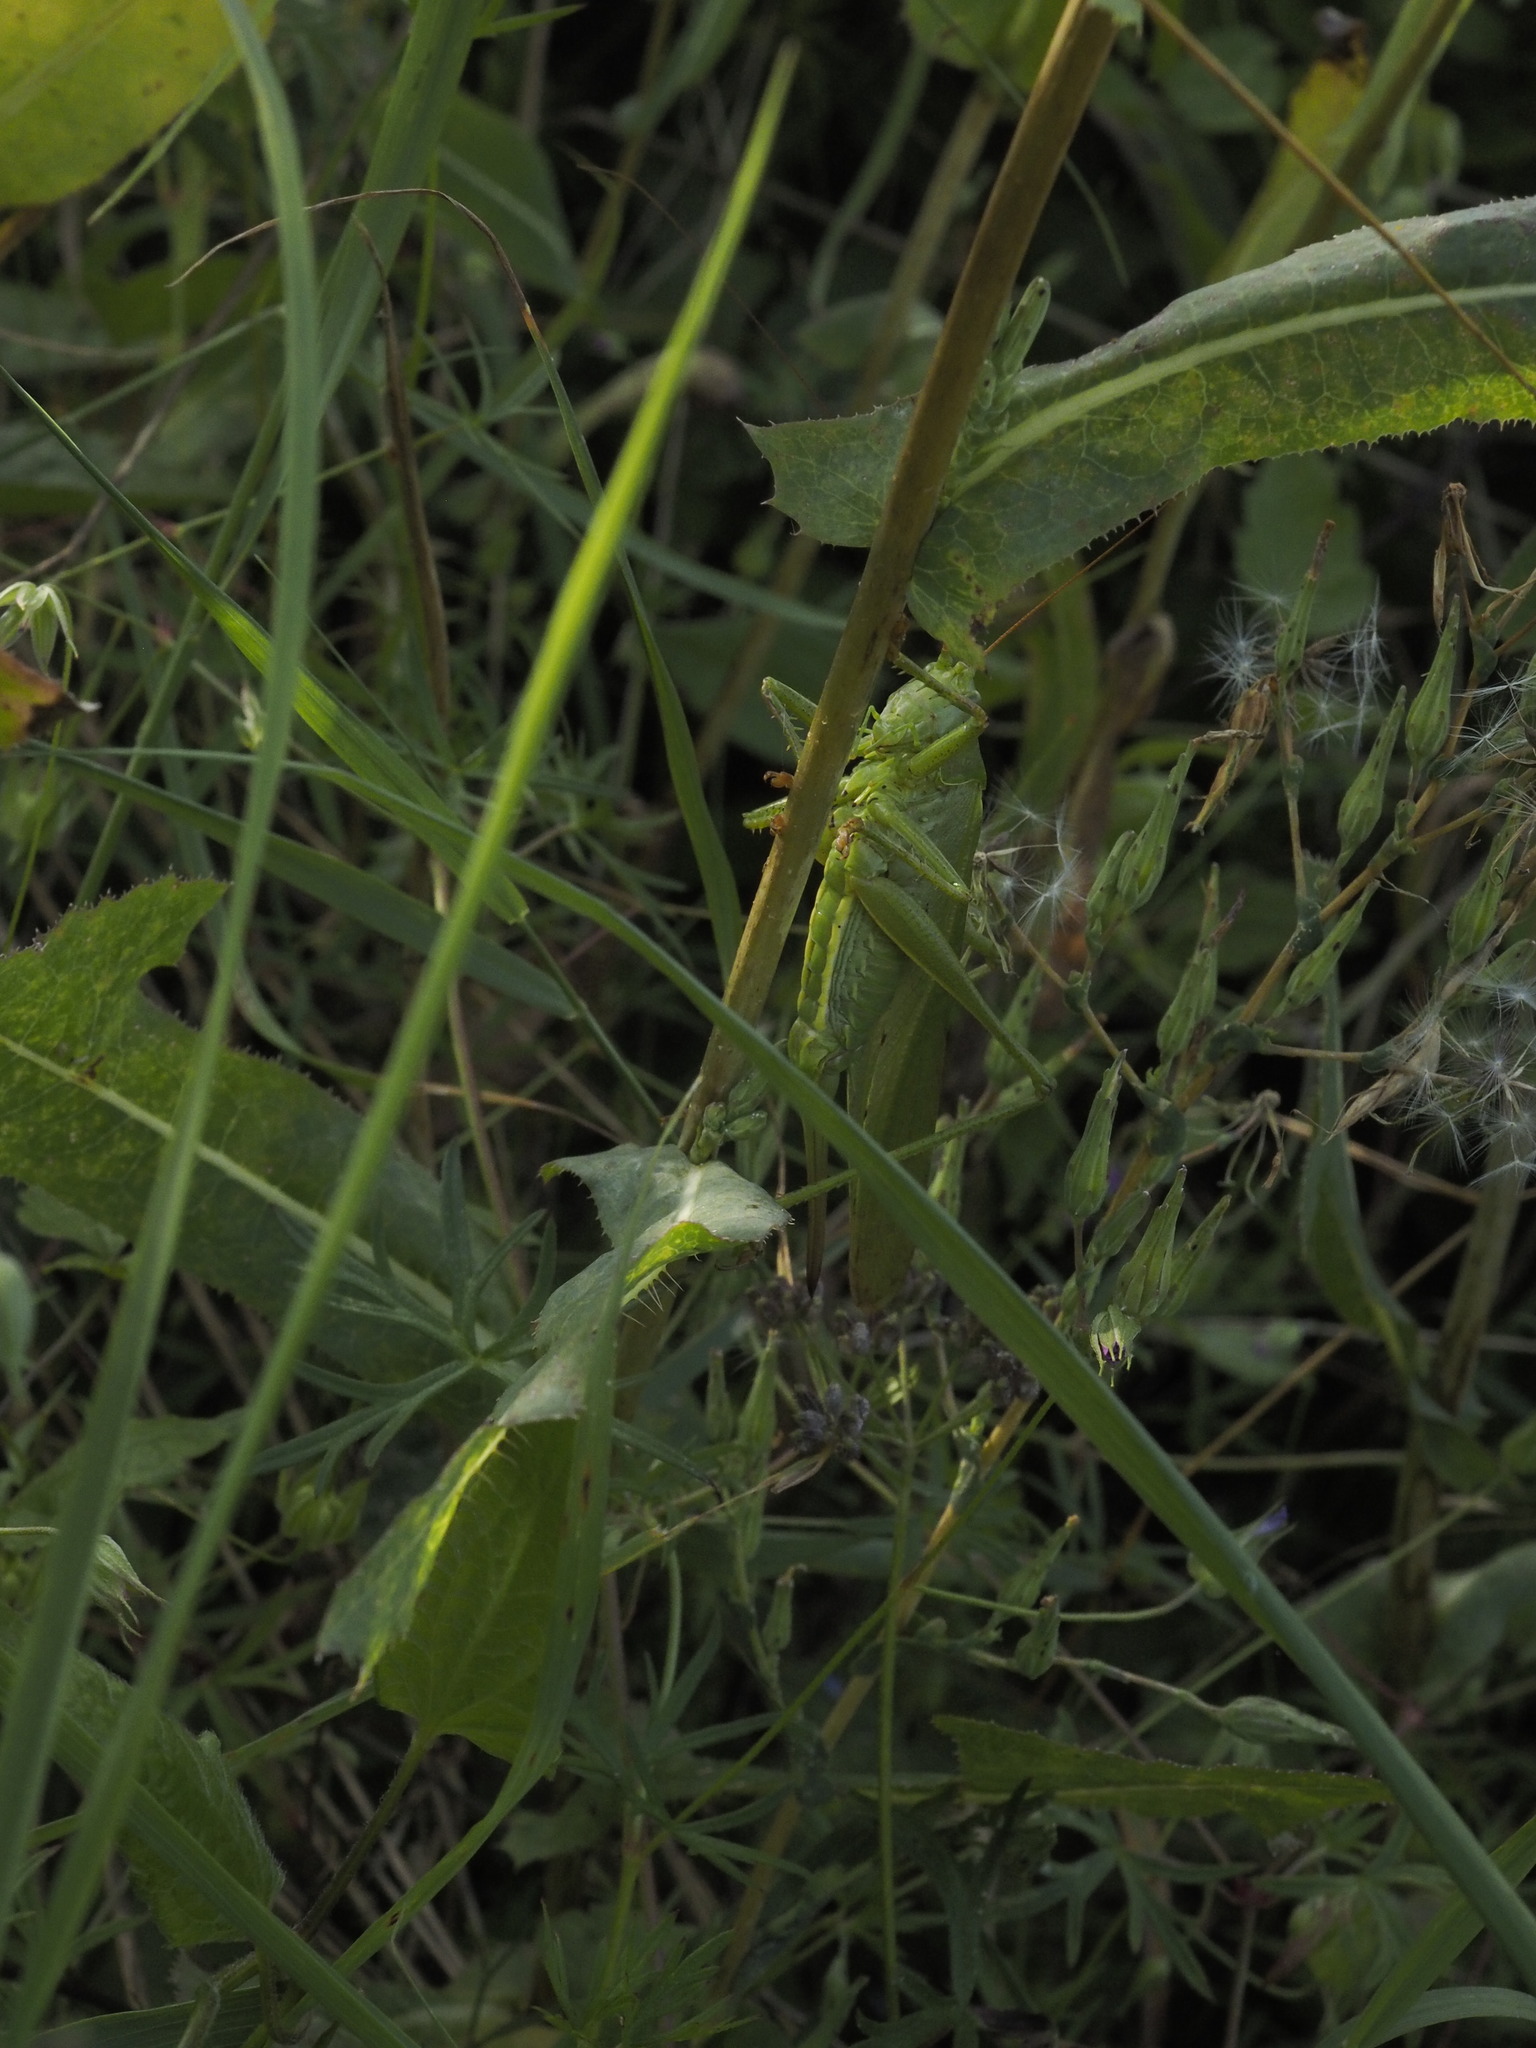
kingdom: Animalia
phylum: Arthropoda
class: Insecta
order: Orthoptera
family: Tettigoniidae
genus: Tettigonia
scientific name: Tettigonia viridissima
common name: Great green bush-cricket
